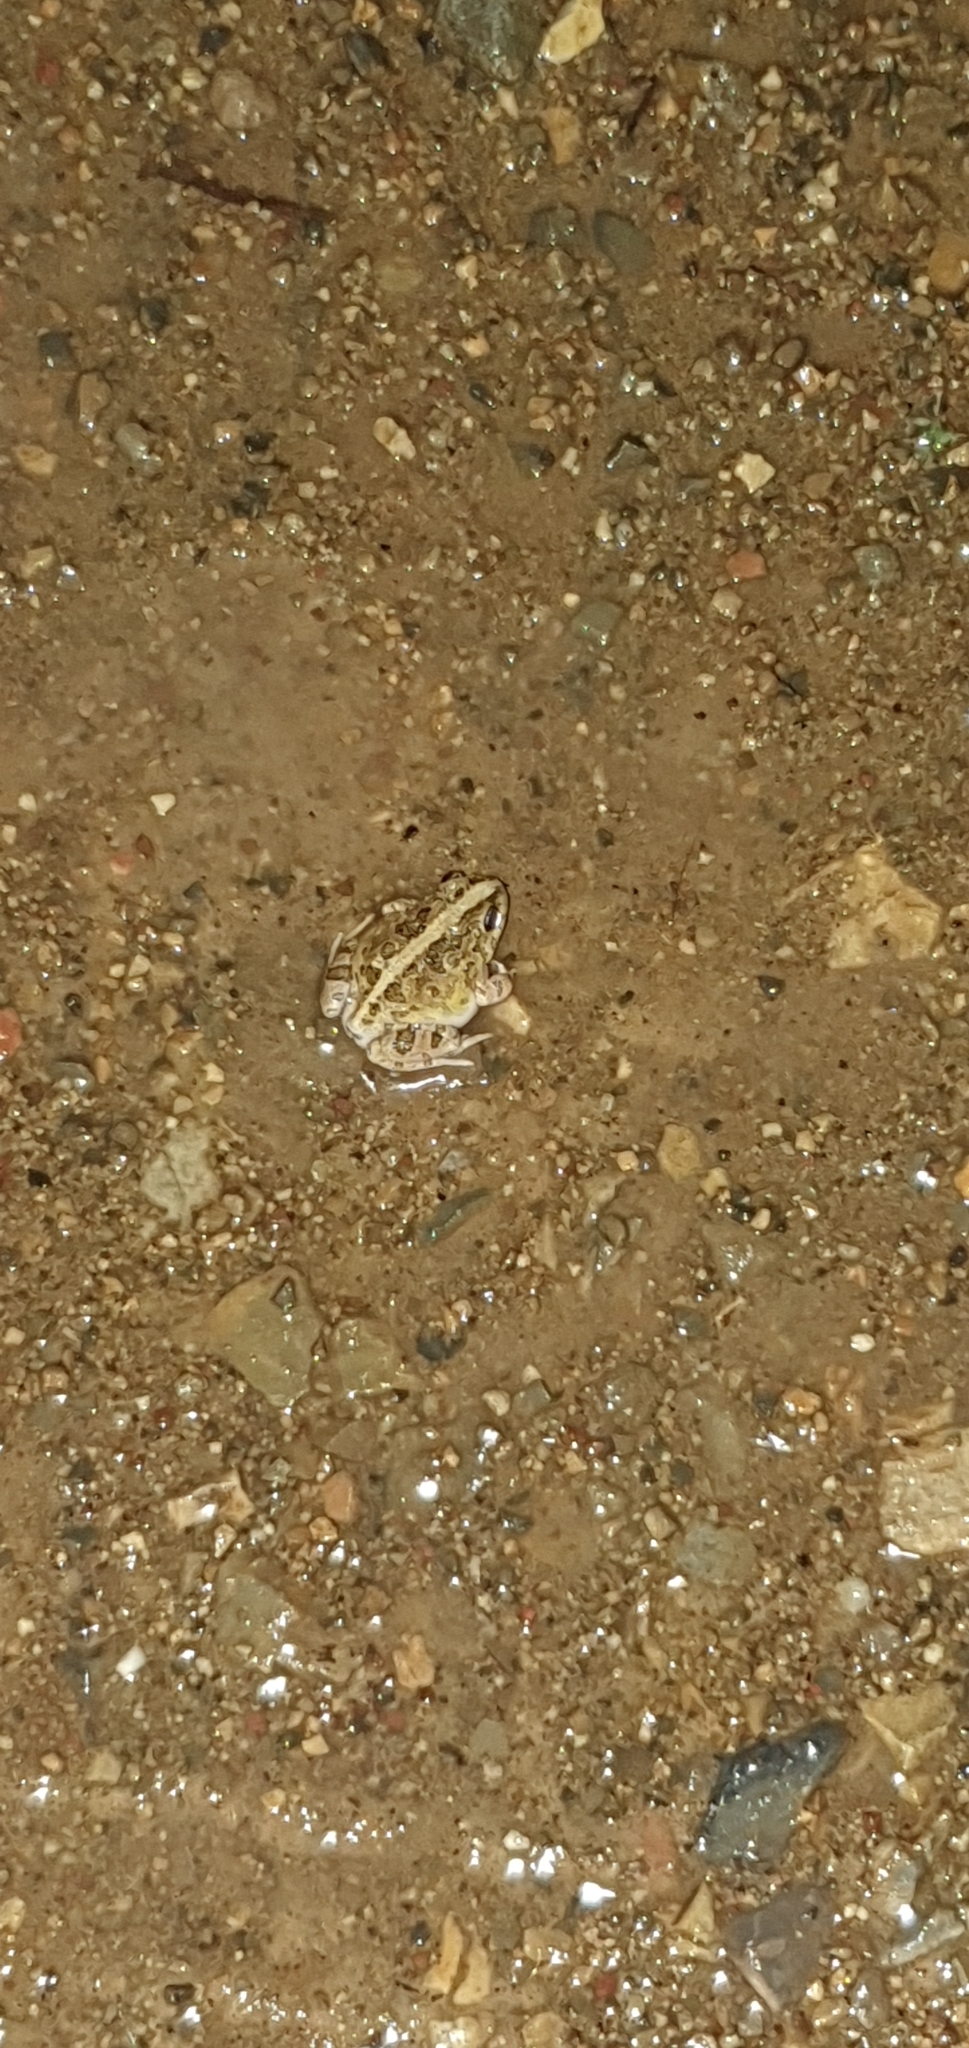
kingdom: Animalia
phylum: Chordata
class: Amphibia
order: Anura
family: Limnodynastidae
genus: Platyplectrum
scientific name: Platyplectrum ornatum
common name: Ornate burrowing frog
